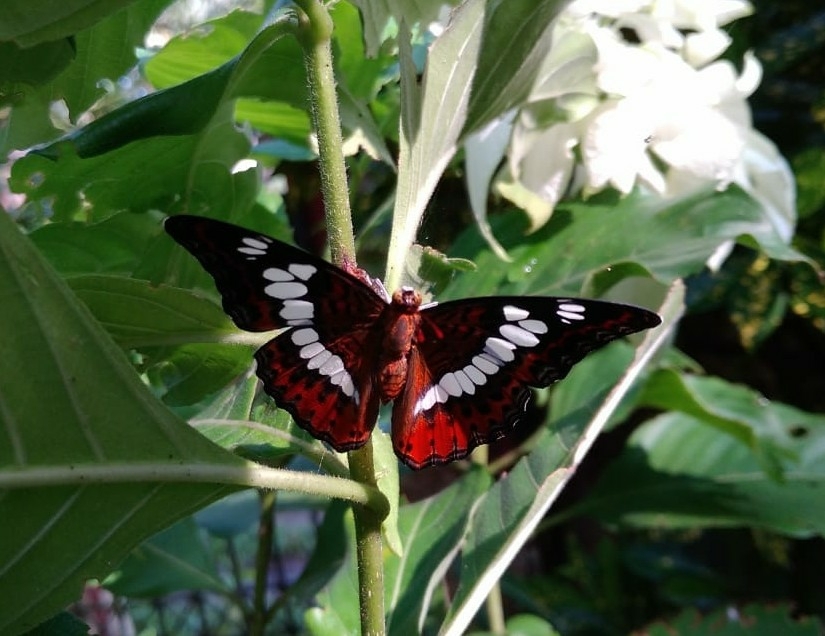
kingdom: Animalia
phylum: Arthropoda
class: Insecta
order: Lepidoptera
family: Nymphalidae
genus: Limenitis
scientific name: Limenitis Moduza procris
